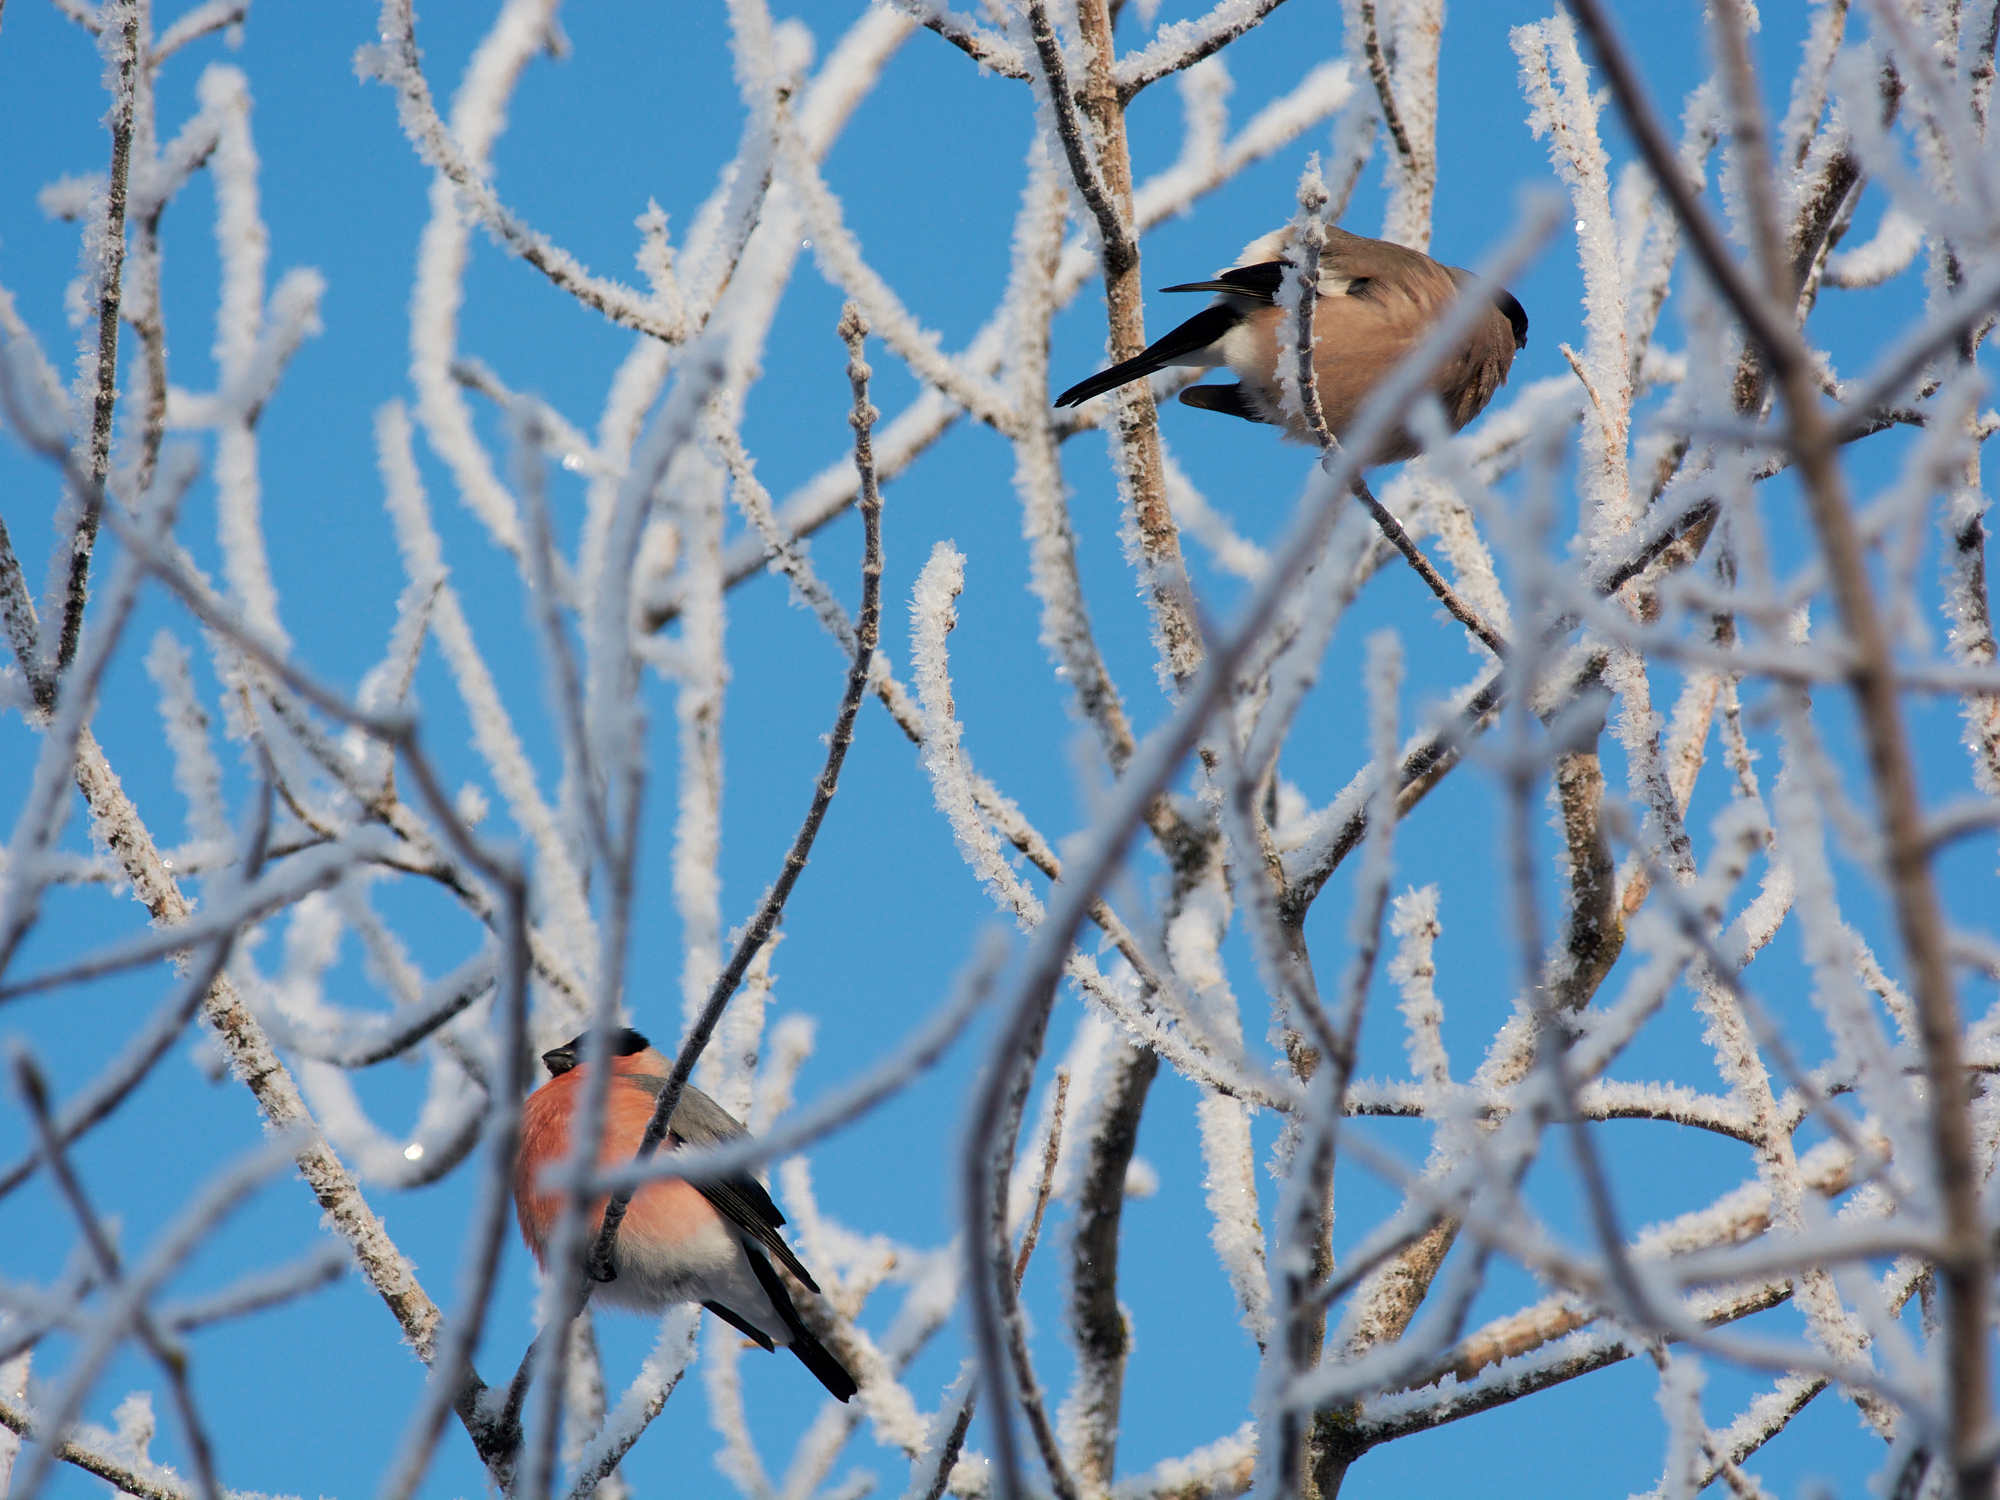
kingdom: Animalia
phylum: Chordata
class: Aves
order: Passeriformes
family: Fringillidae
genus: Pyrrhula
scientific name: Pyrrhula pyrrhula
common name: Eurasian bullfinch
